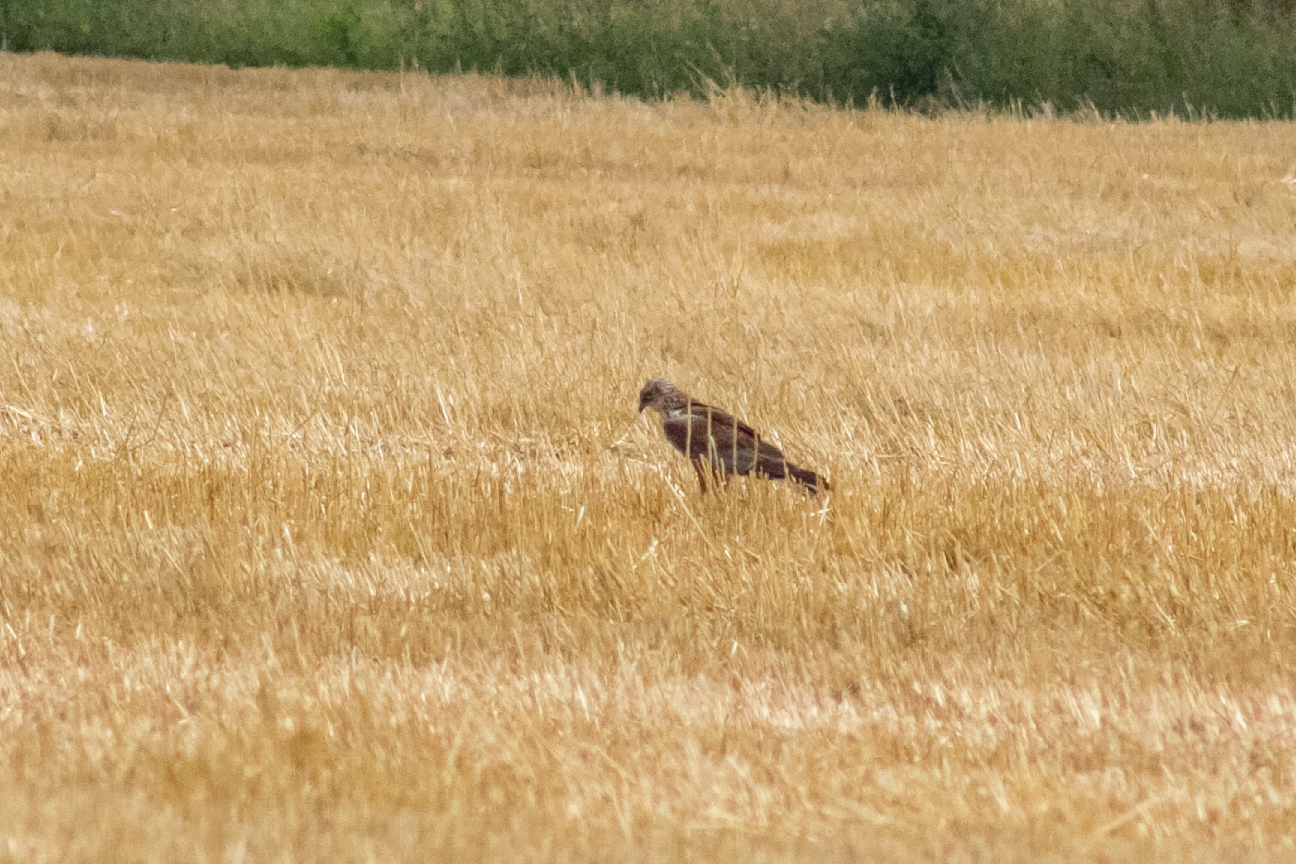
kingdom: Animalia
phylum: Chordata
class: Aves
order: Accipitriformes
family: Accipitridae
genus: Circus
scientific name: Circus aeruginosus
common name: Western marsh harrier
